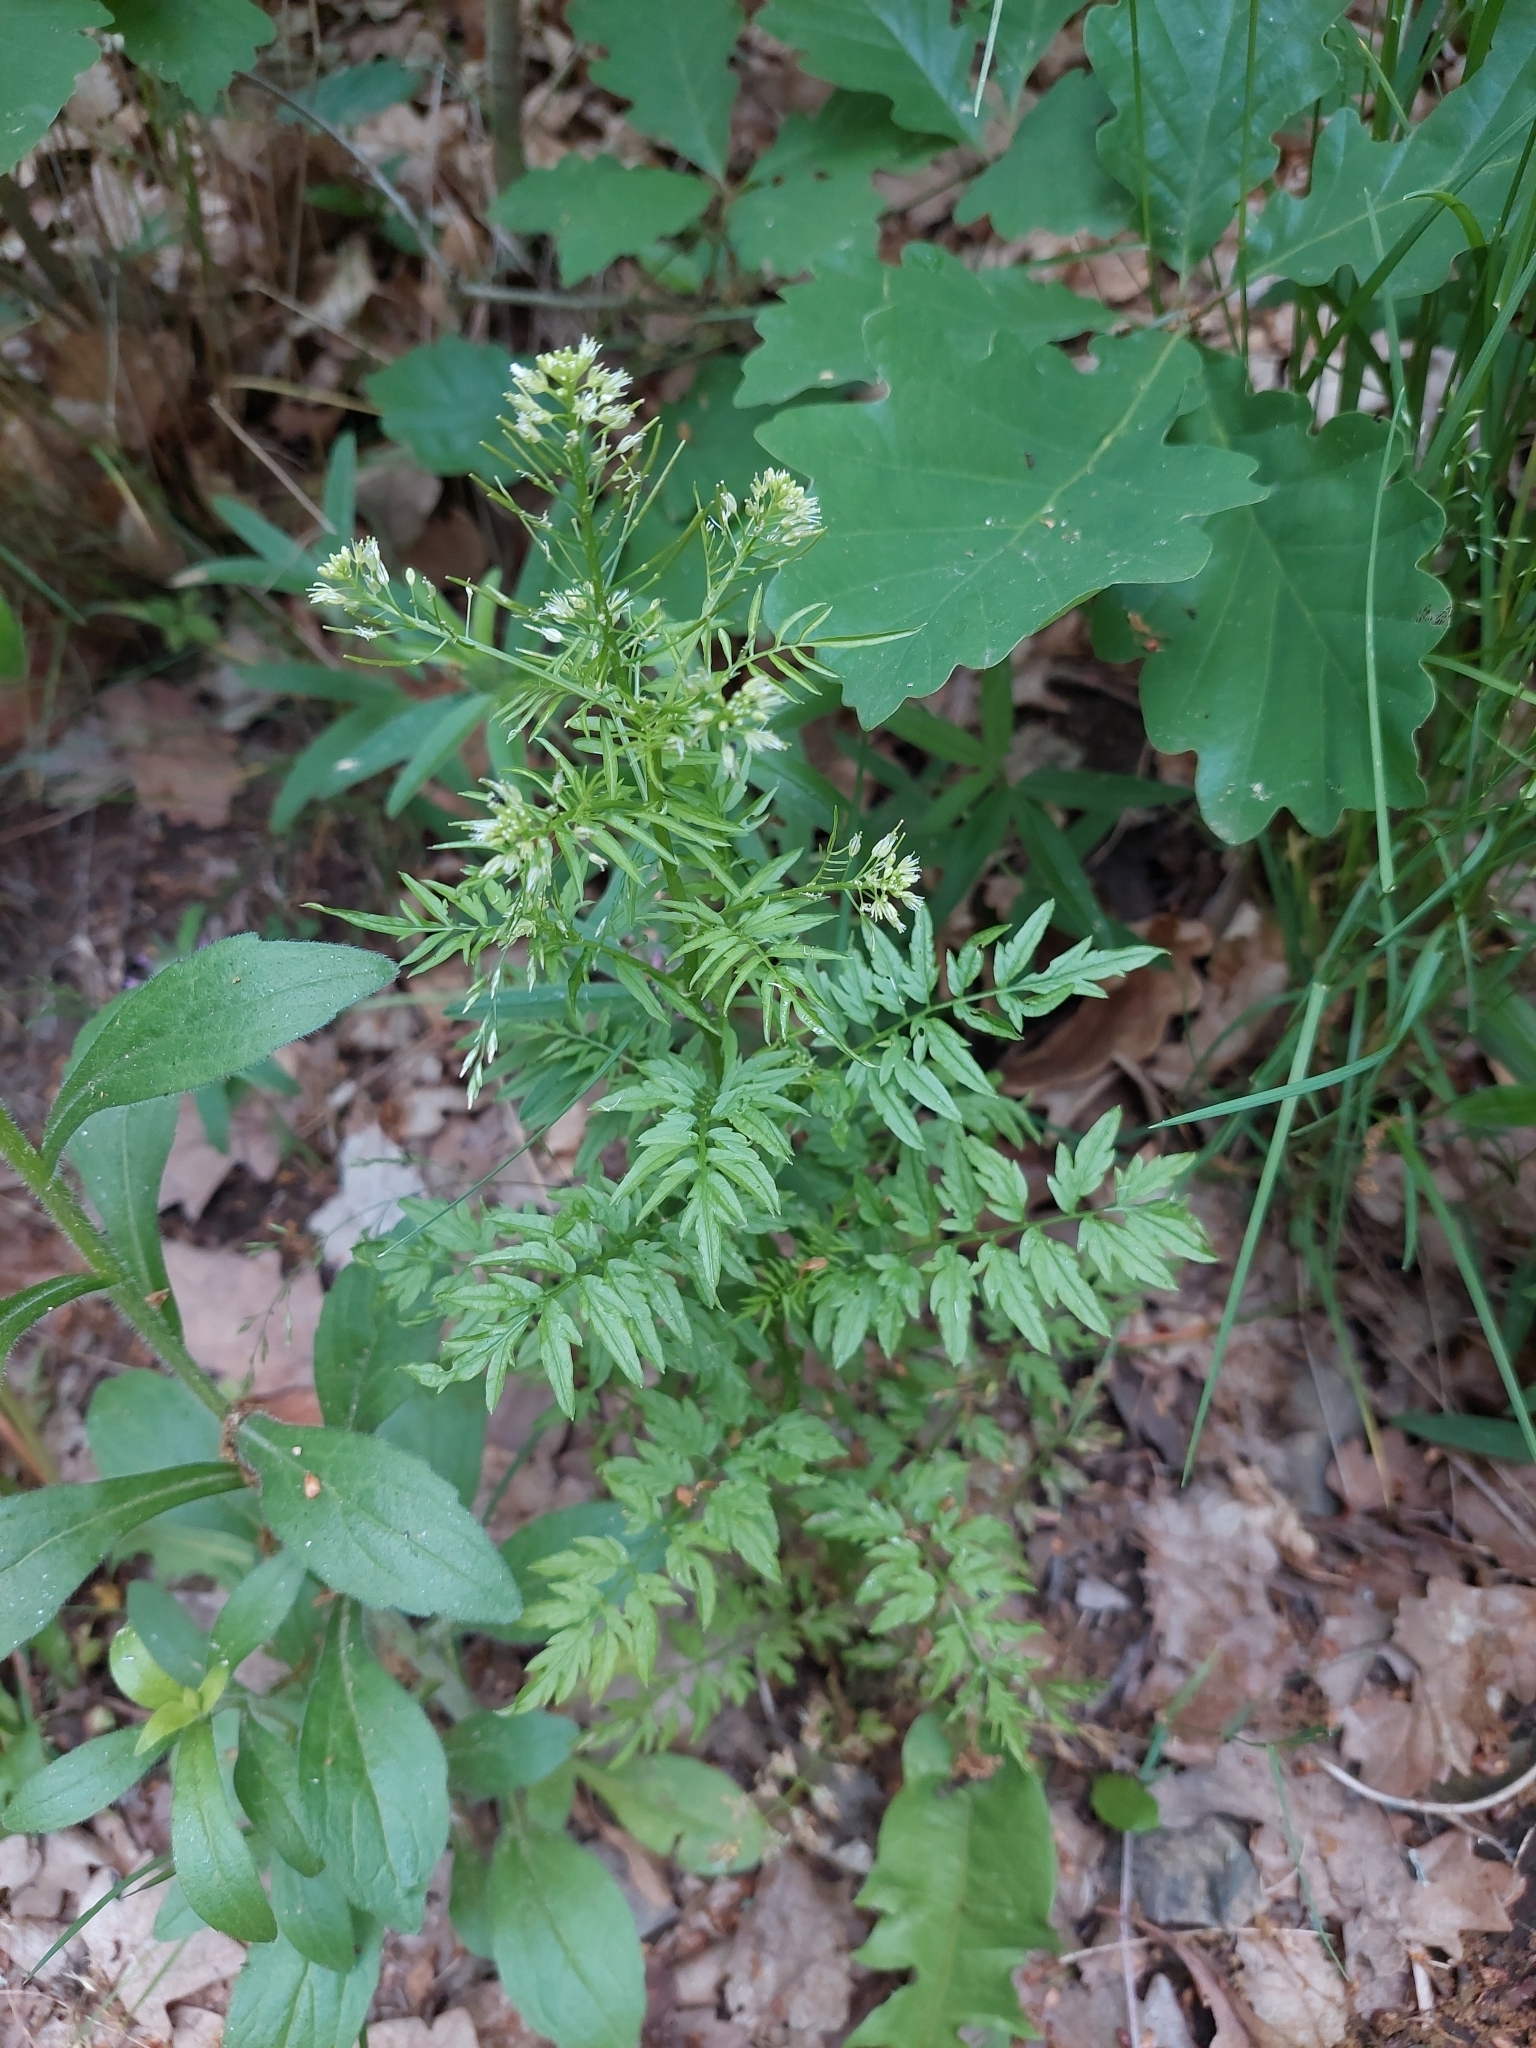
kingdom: Plantae
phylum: Tracheophyta
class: Magnoliopsida
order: Brassicales
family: Brassicaceae
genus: Cardamine
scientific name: Cardamine impatiens
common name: Narrow-leaved bitter-cress
